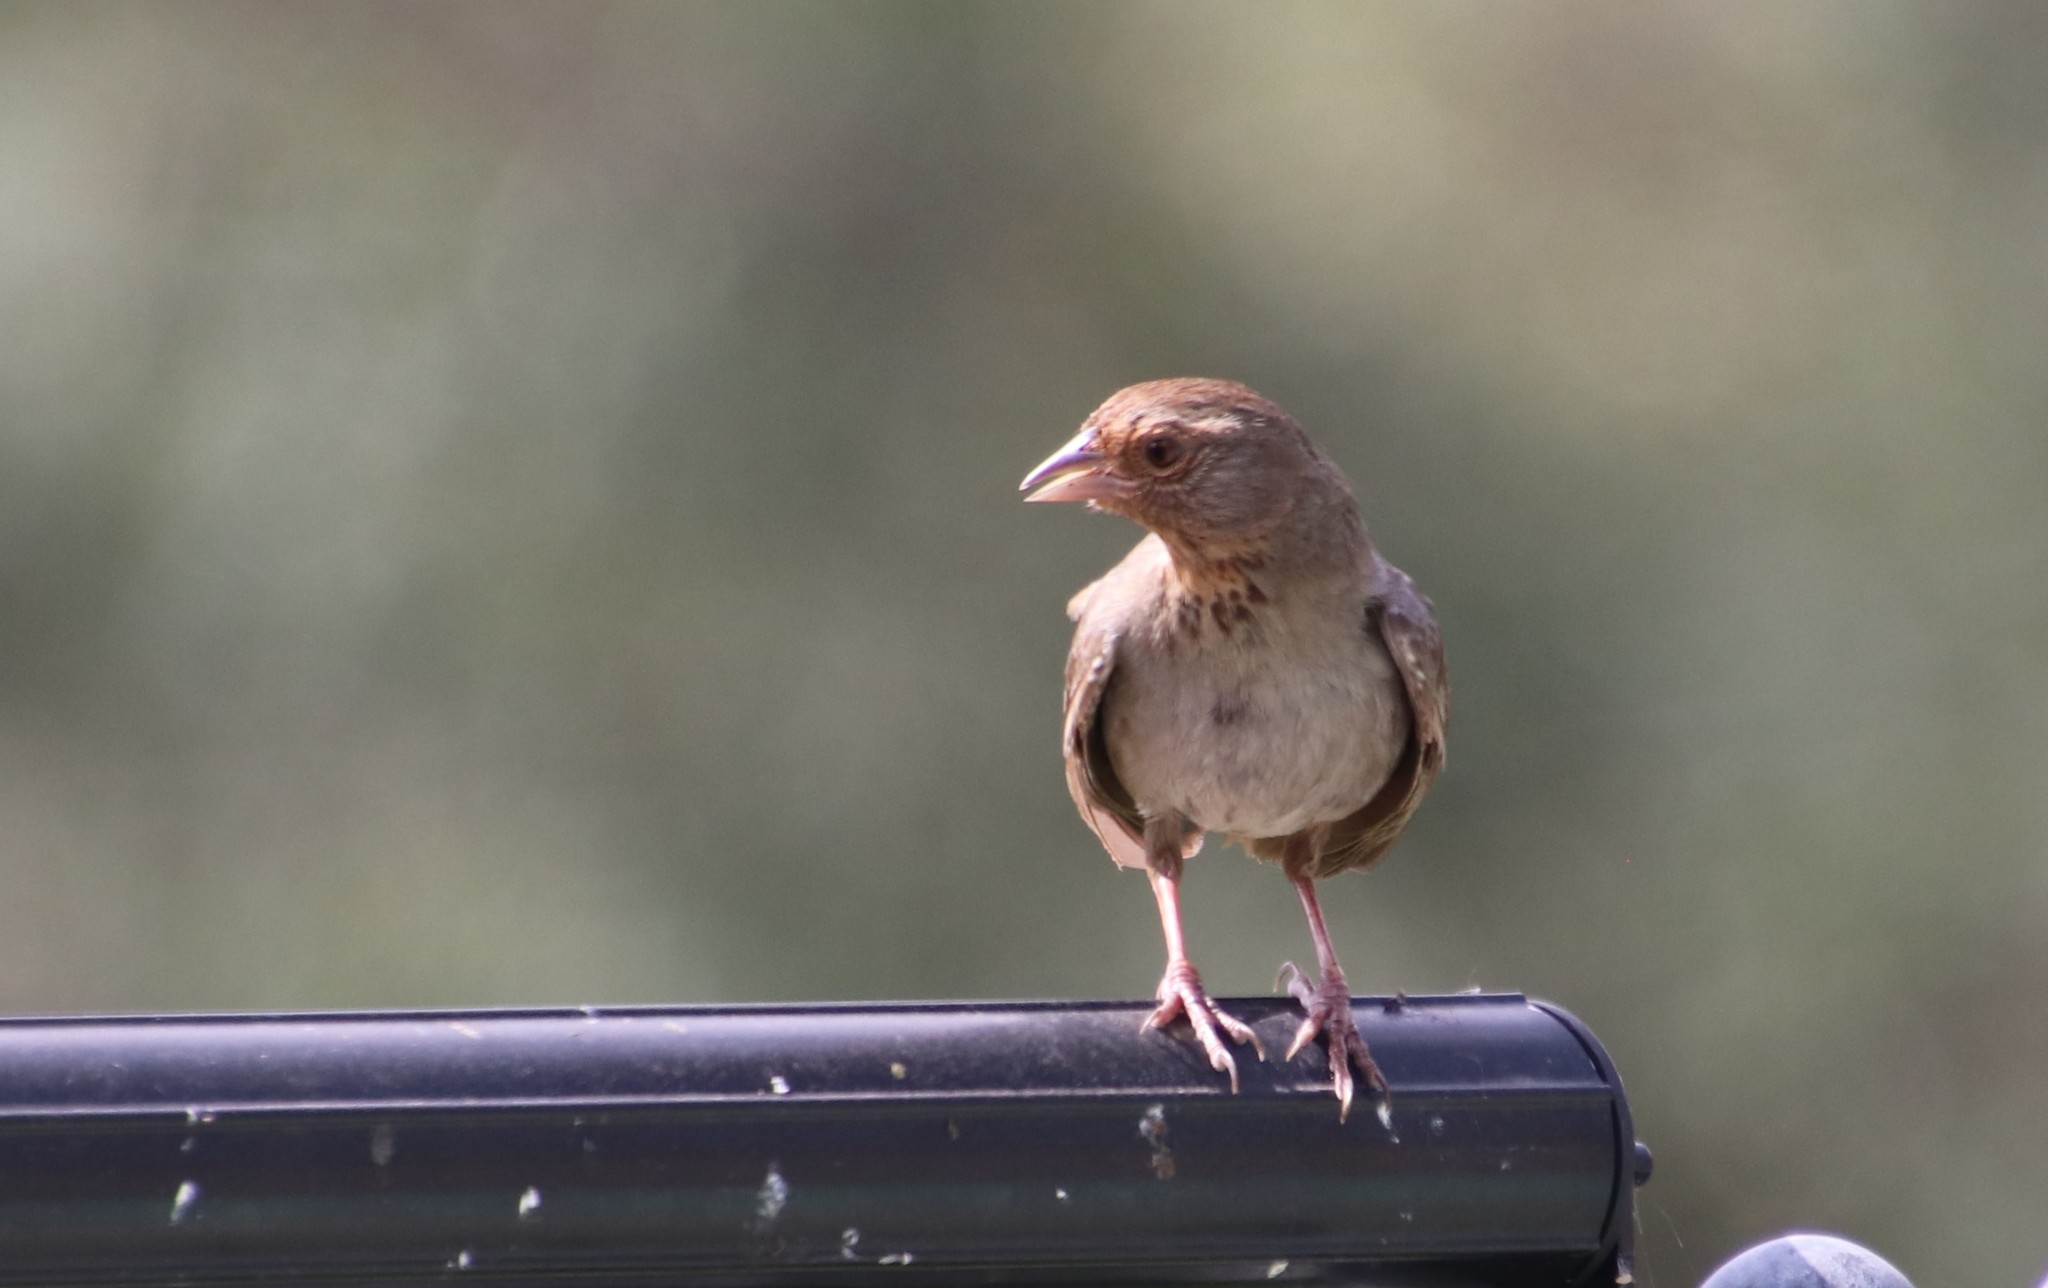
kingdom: Animalia
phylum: Chordata
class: Aves
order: Passeriformes
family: Passerellidae
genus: Melozone
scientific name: Melozone crissalis
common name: California towhee
